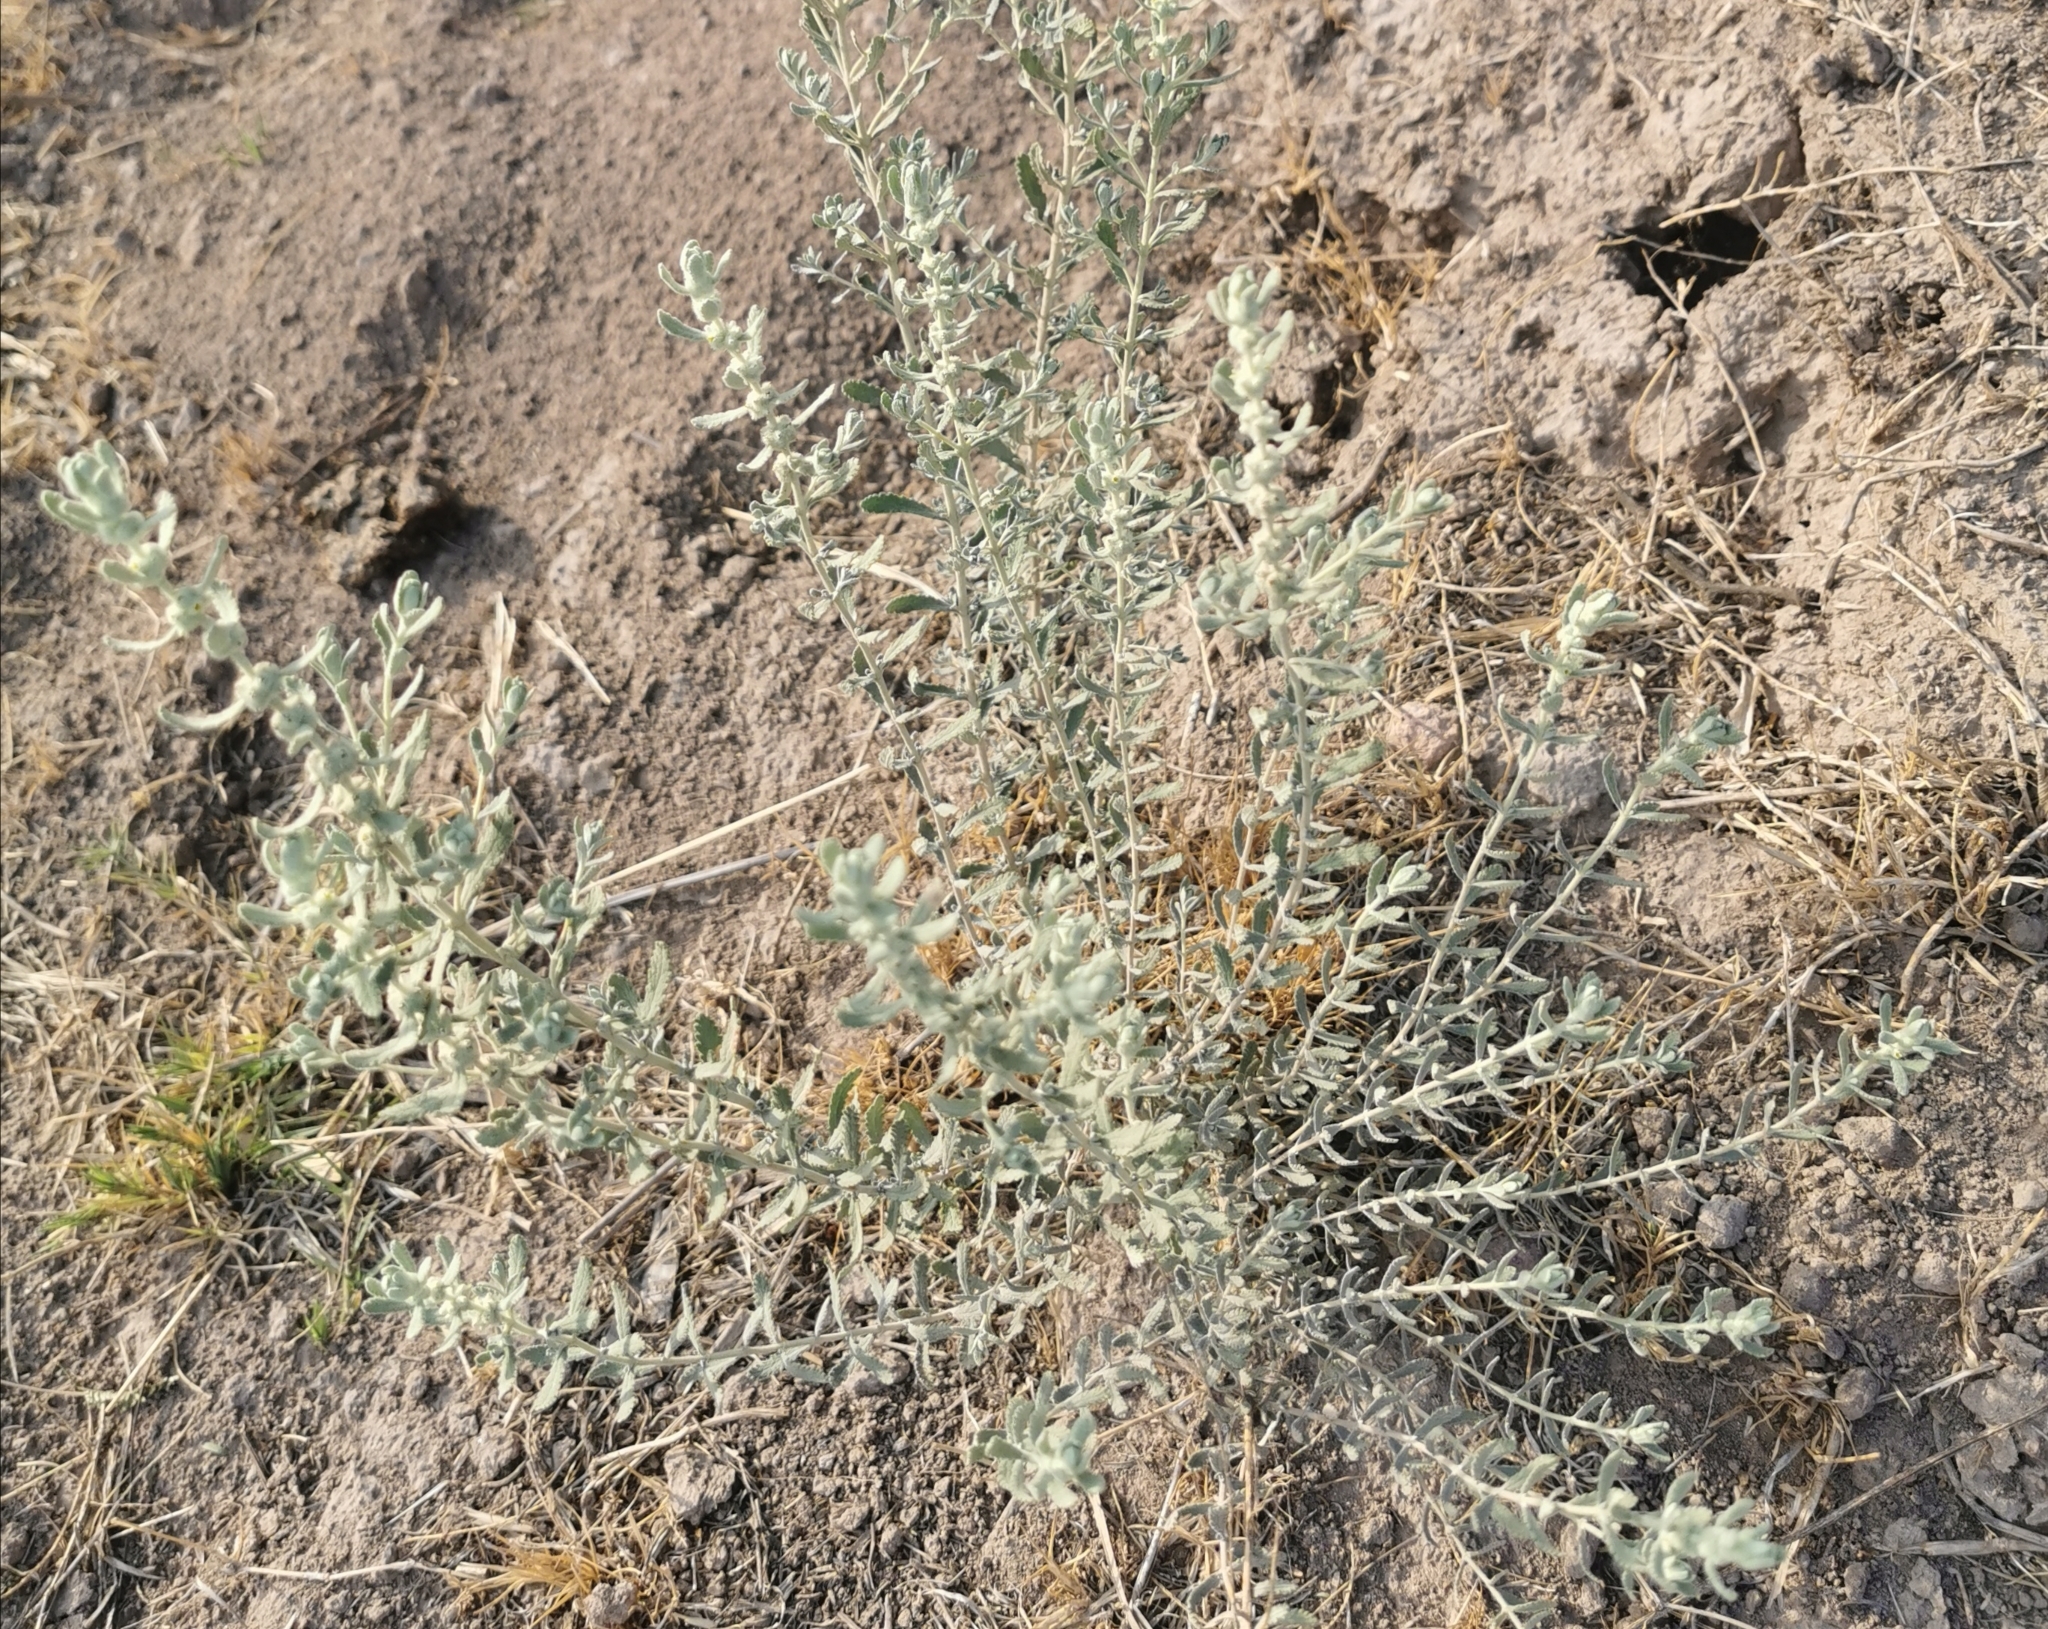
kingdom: Plantae
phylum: Tracheophyta
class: Magnoliopsida
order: Lamiales
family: Scrophulariaceae
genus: Buddleja
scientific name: Buddleja scordioides
